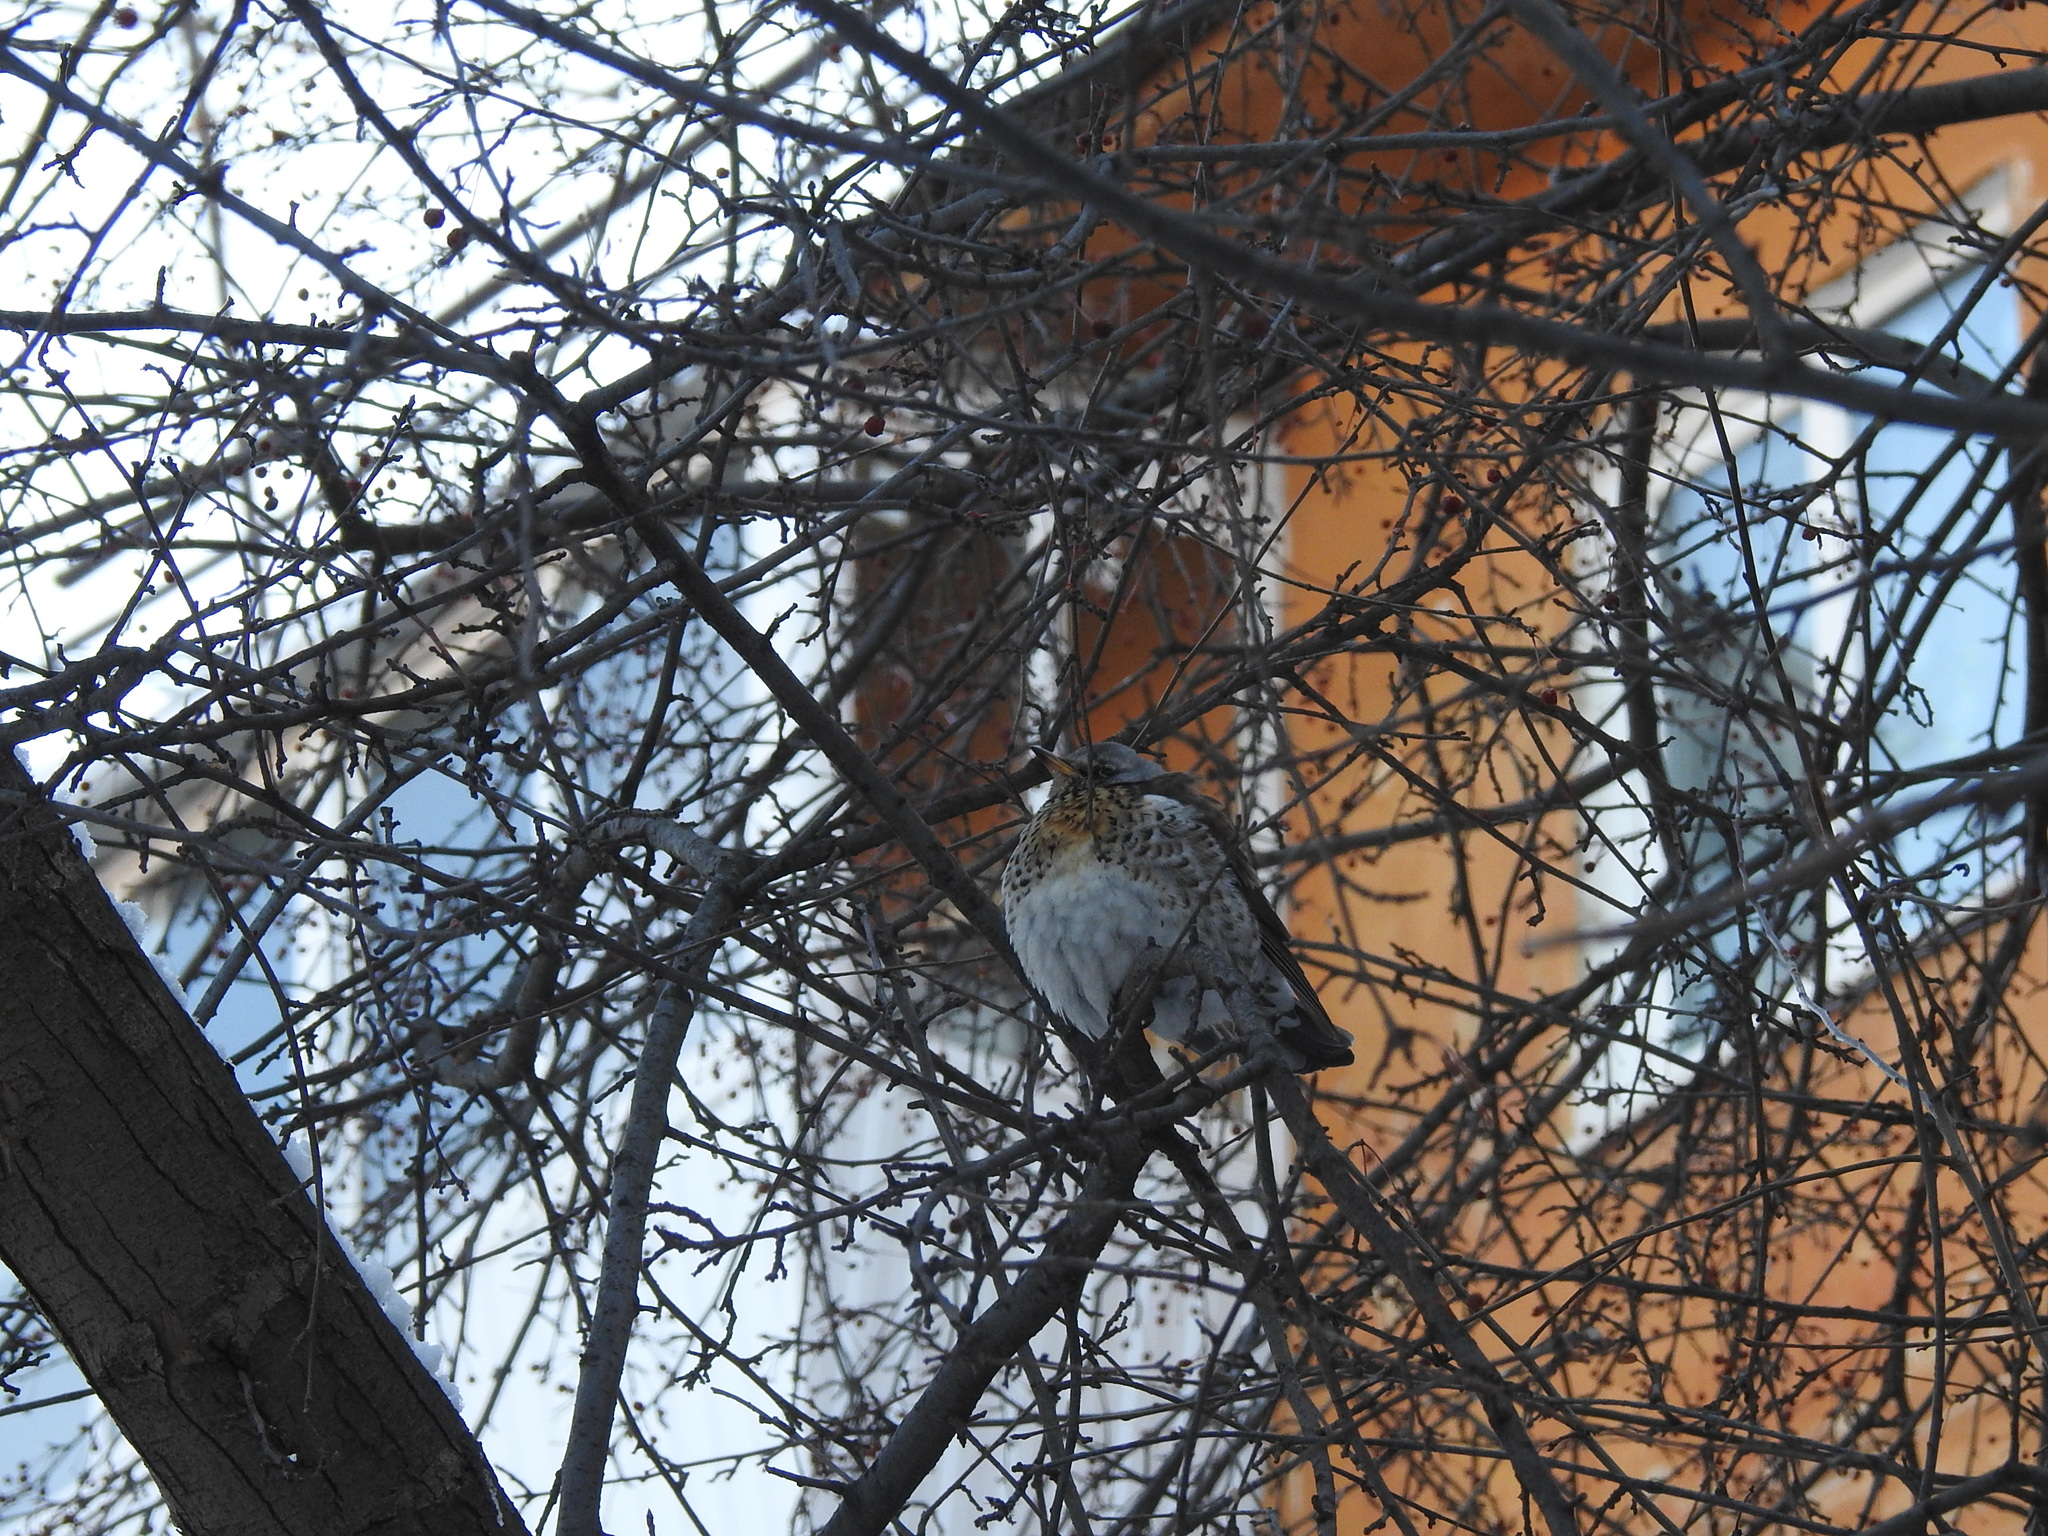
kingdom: Animalia
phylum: Chordata
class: Aves
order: Passeriformes
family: Turdidae
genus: Turdus
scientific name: Turdus pilaris
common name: Fieldfare
